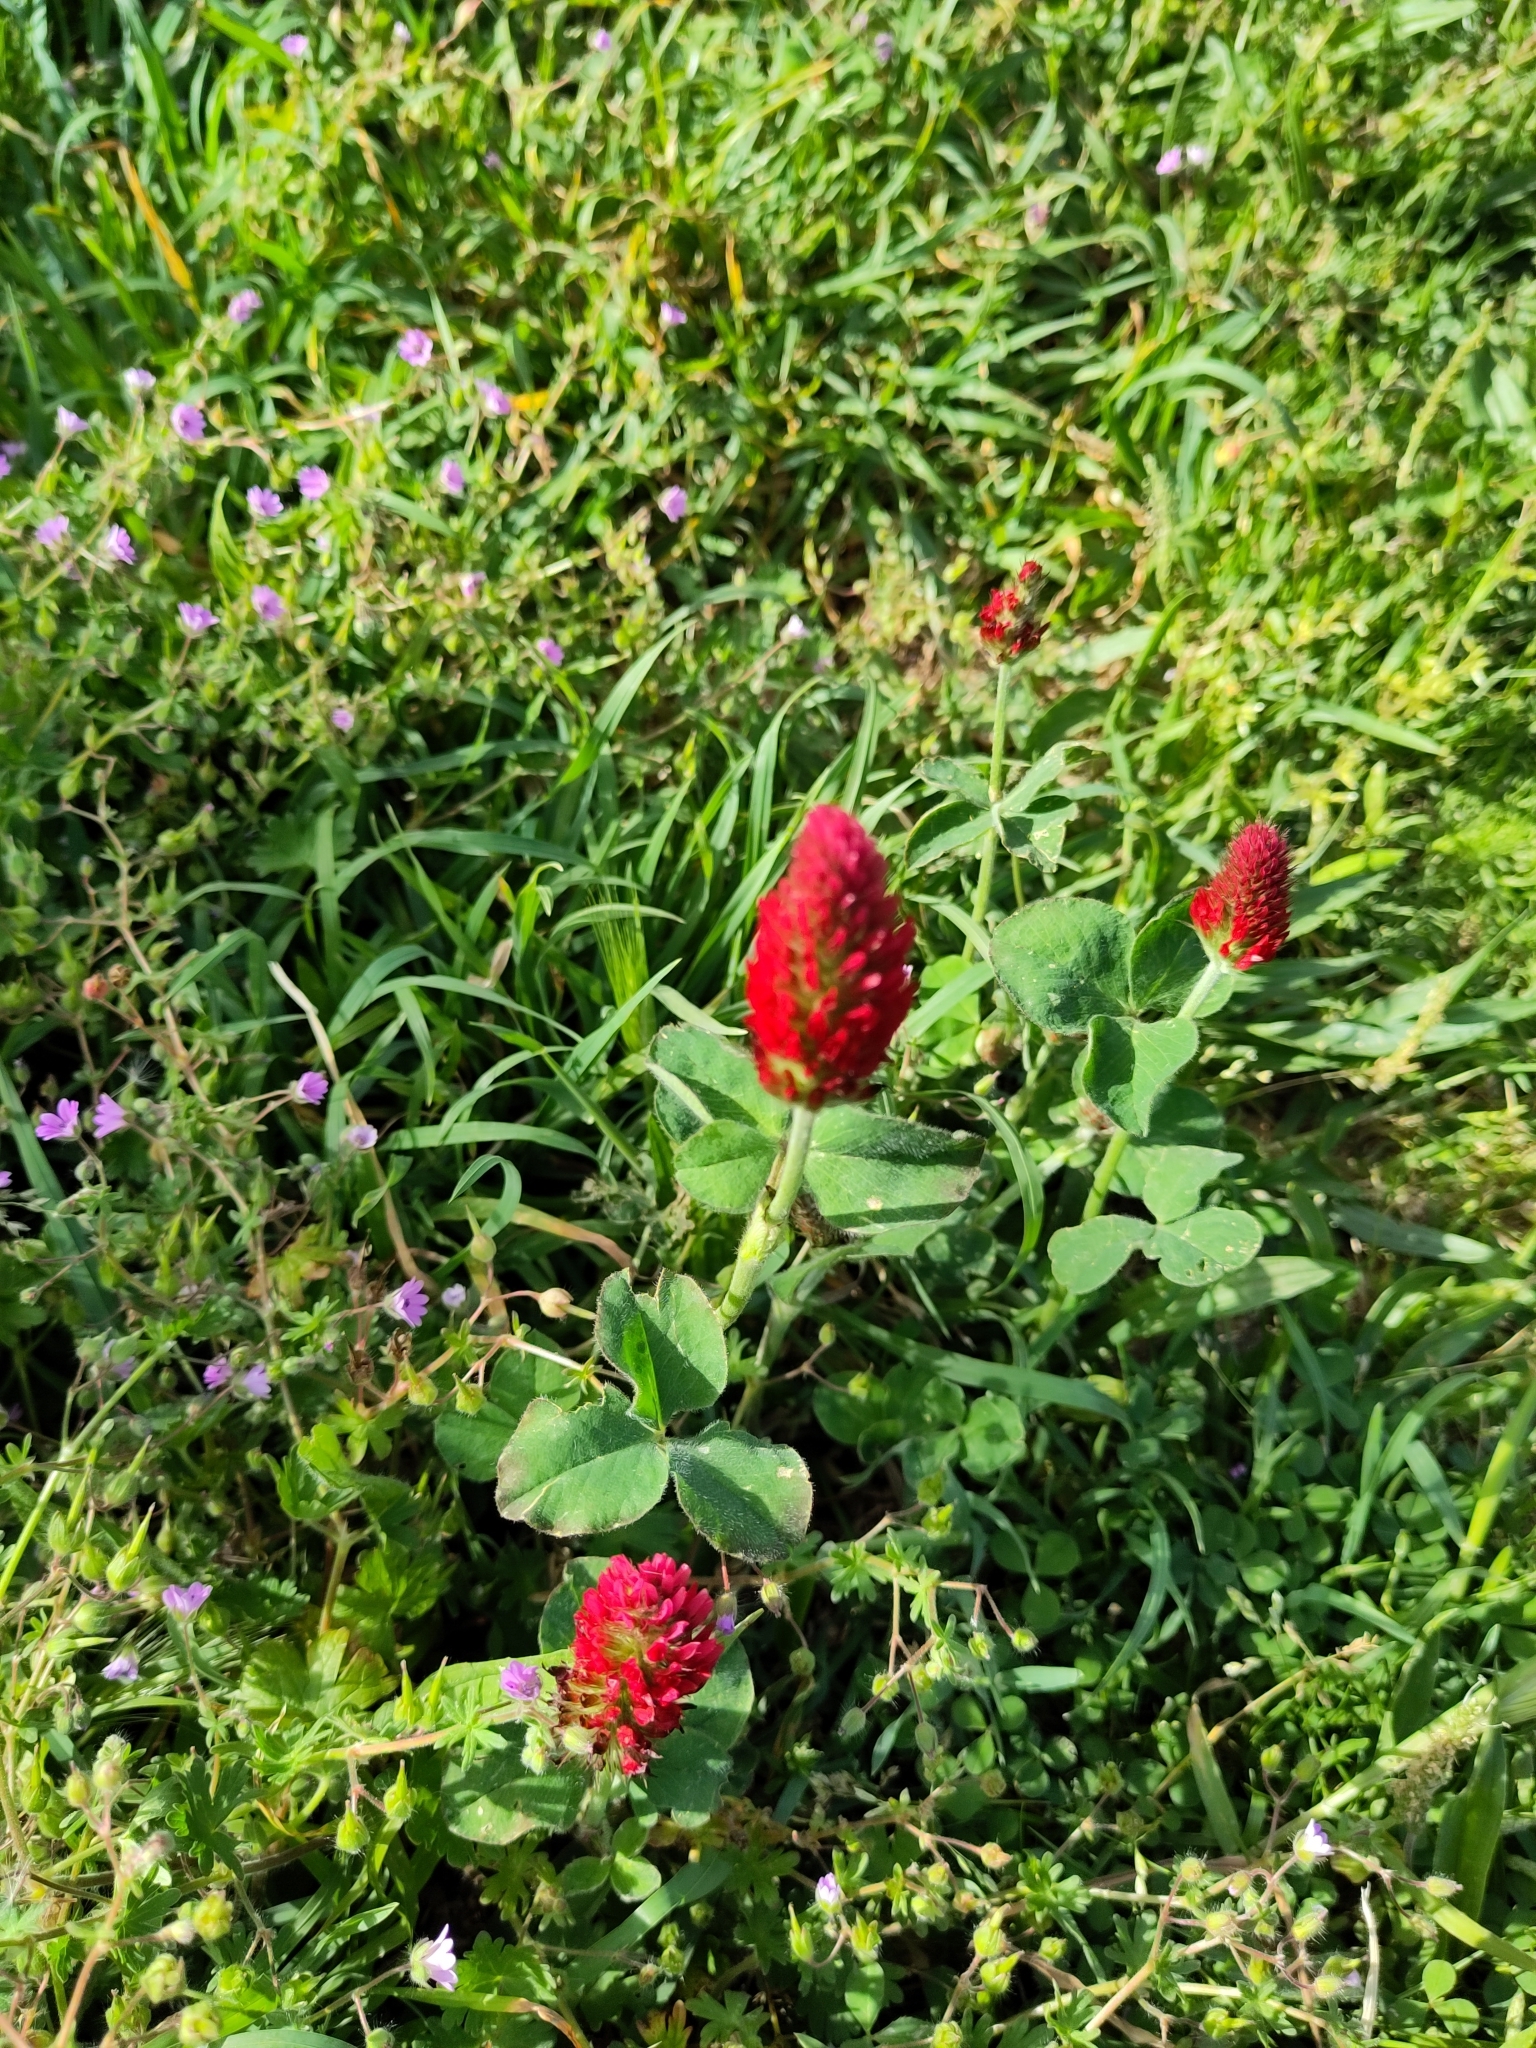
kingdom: Plantae
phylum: Tracheophyta
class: Magnoliopsida
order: Fabales
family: Fabaceae
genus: Trifolium
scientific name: Trifolium incarnatum
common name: Crimson clover
